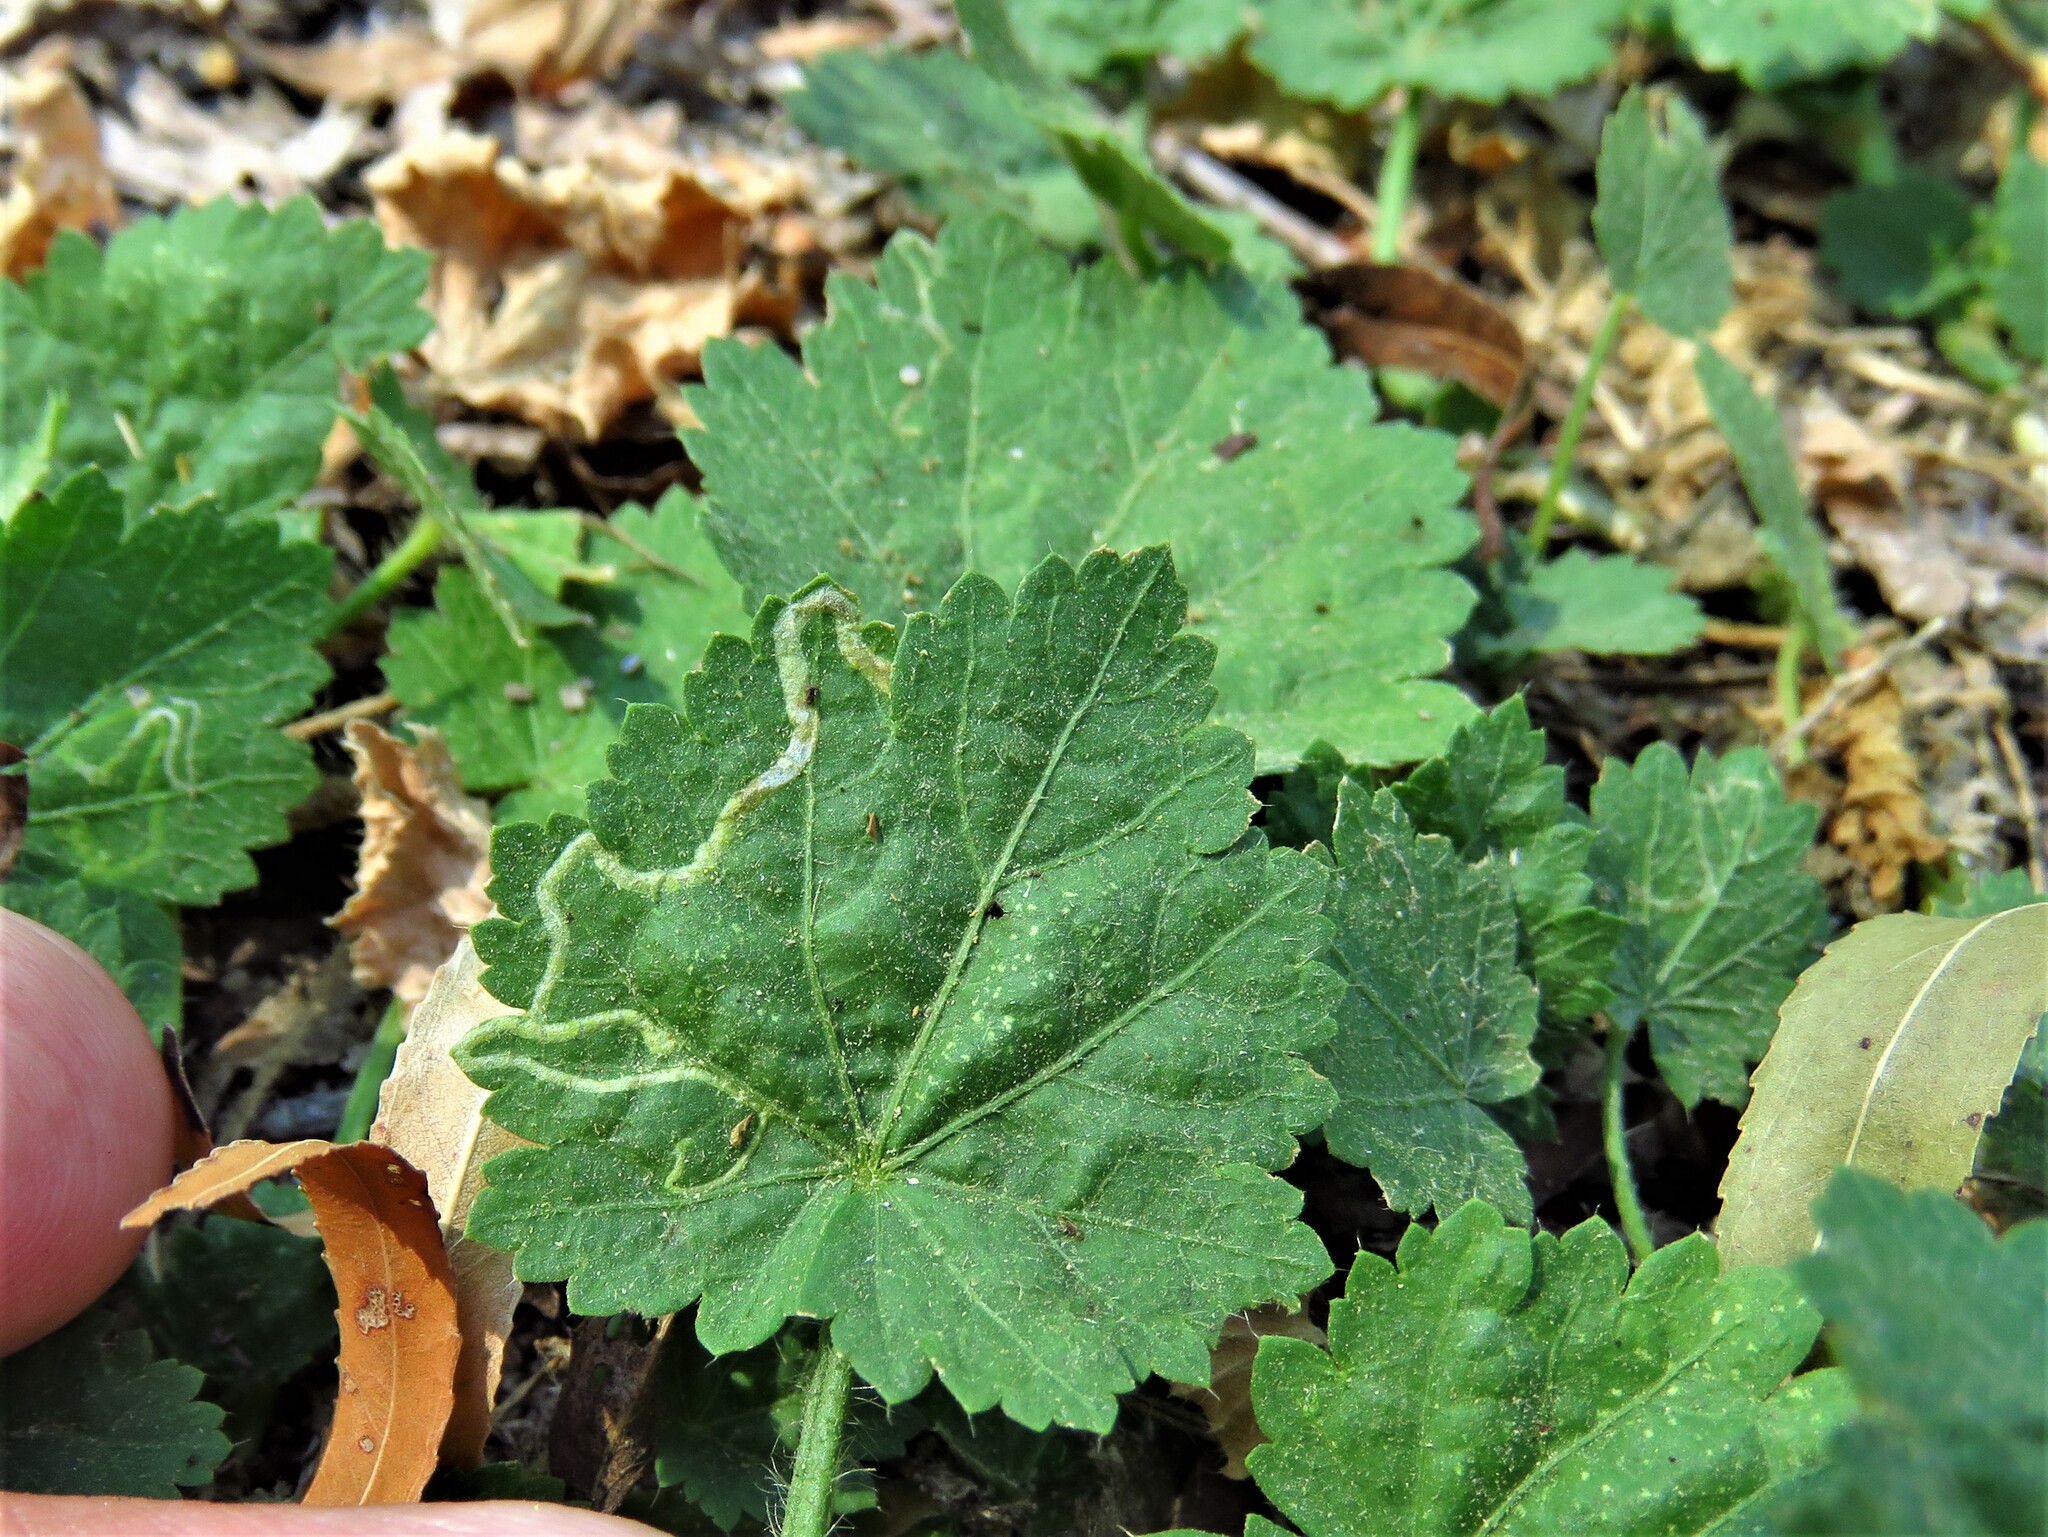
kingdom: Animalia
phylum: Arthropoda
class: Insecta
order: Diptera
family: Agromyzidae
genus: Calycomyza
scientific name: Calycomyza malvae
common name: Mallow leaf miner
